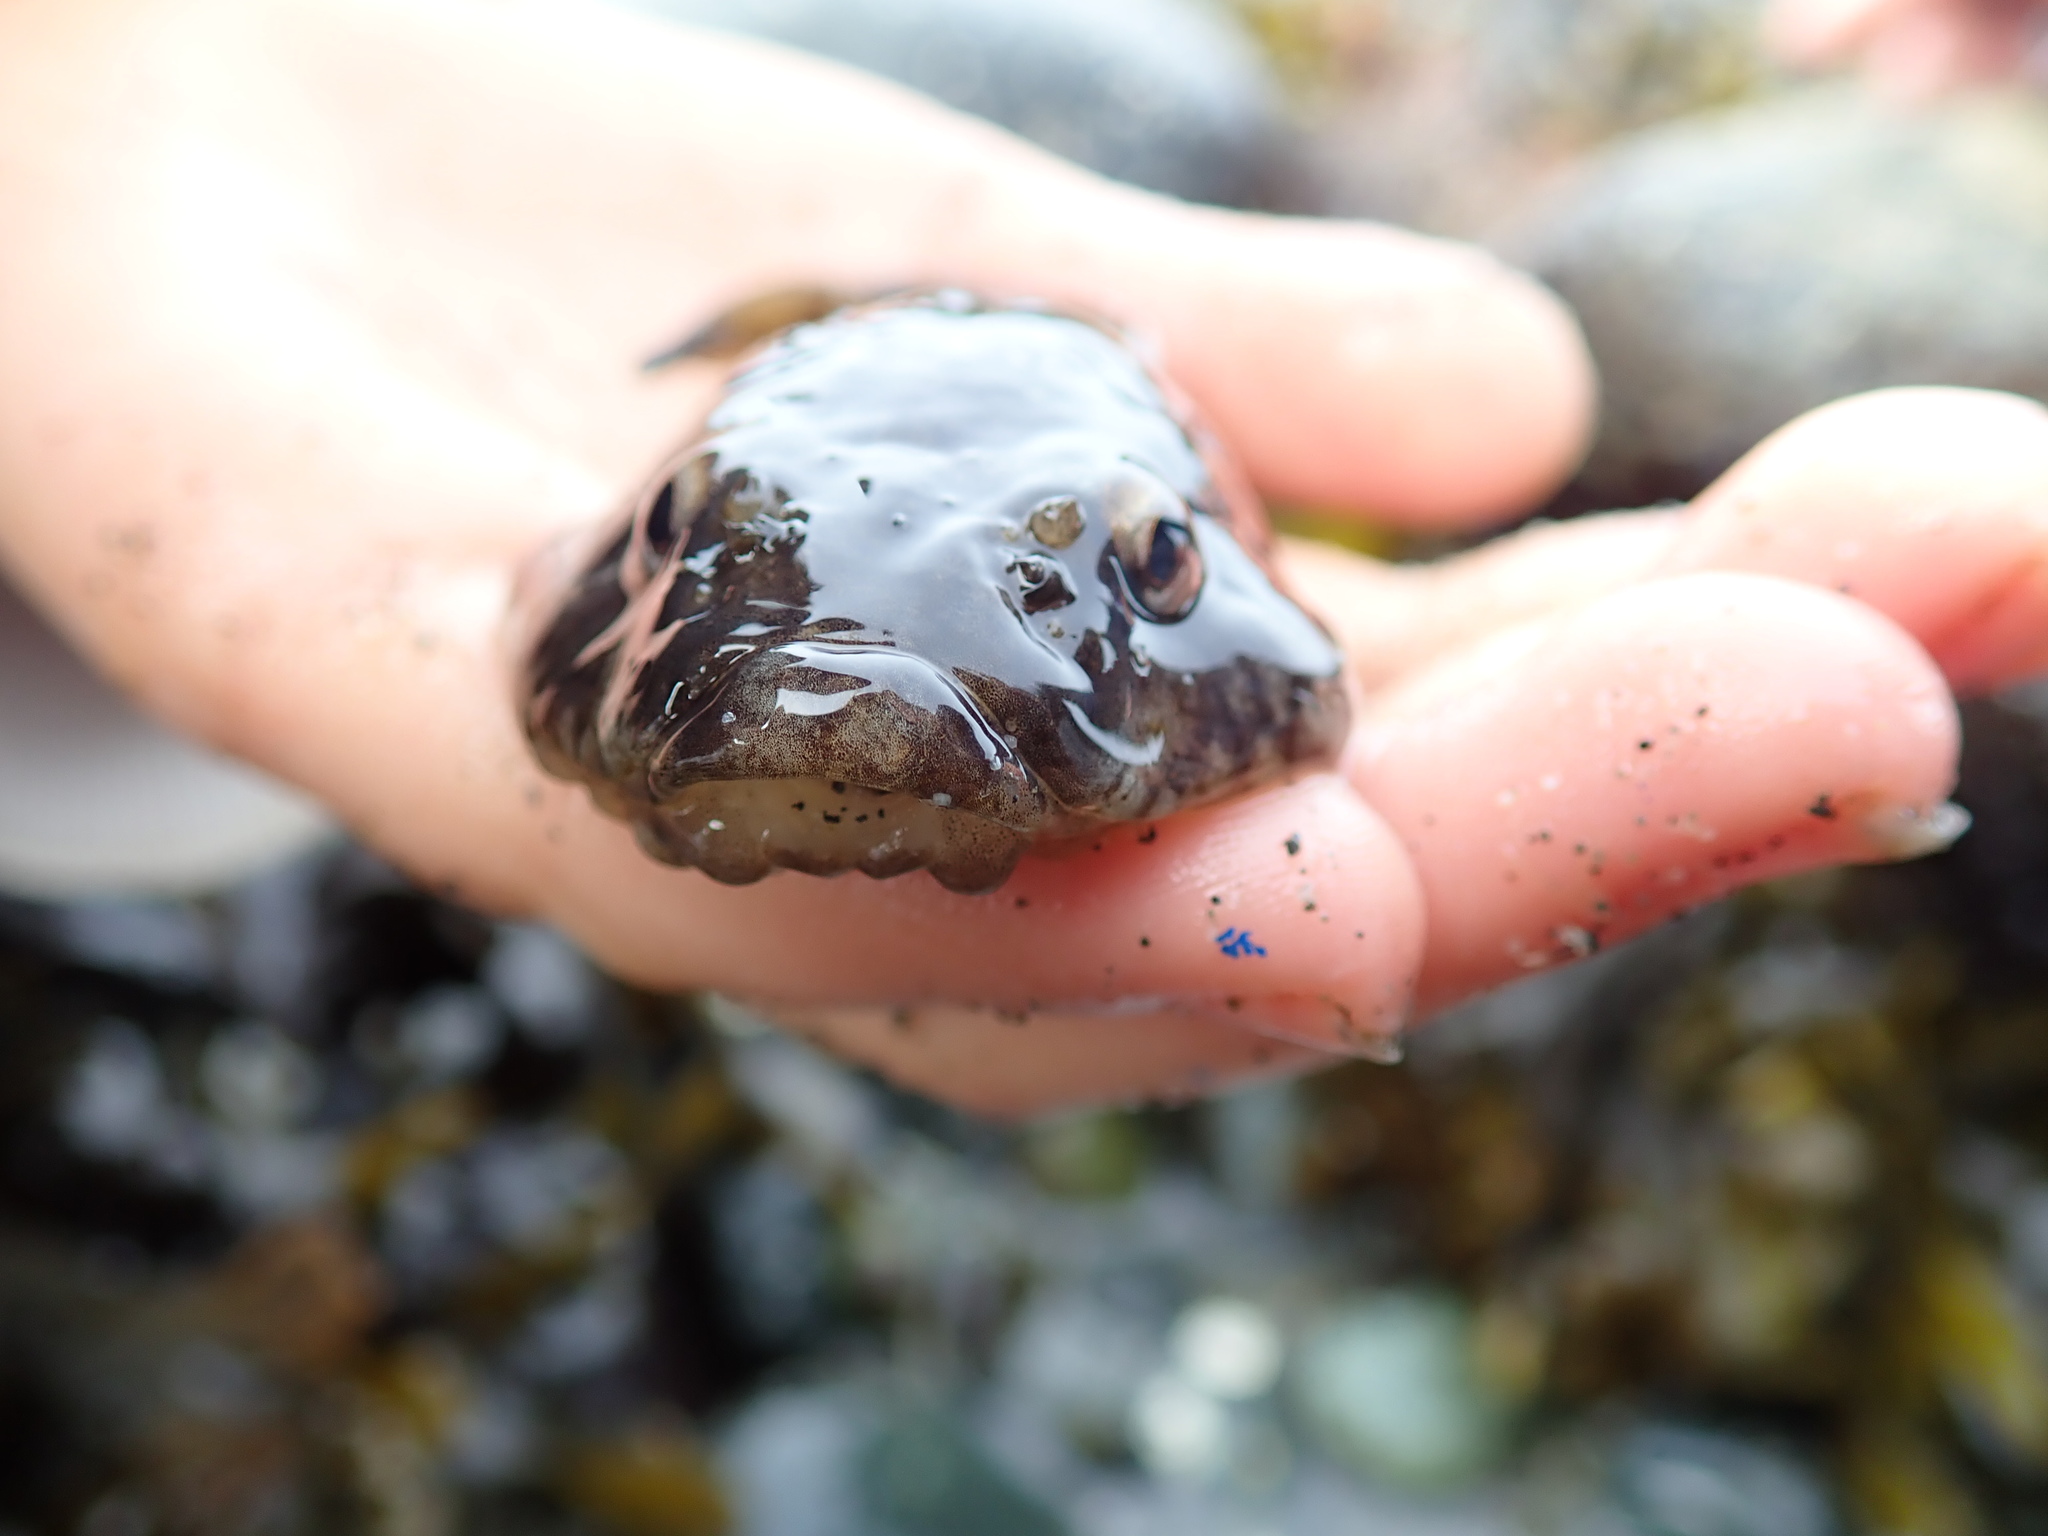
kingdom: Animalia
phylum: Chordata
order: Gobiesociformes
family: Gobiesocidae
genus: Gobiesox
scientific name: Gobiesox maeandricus
